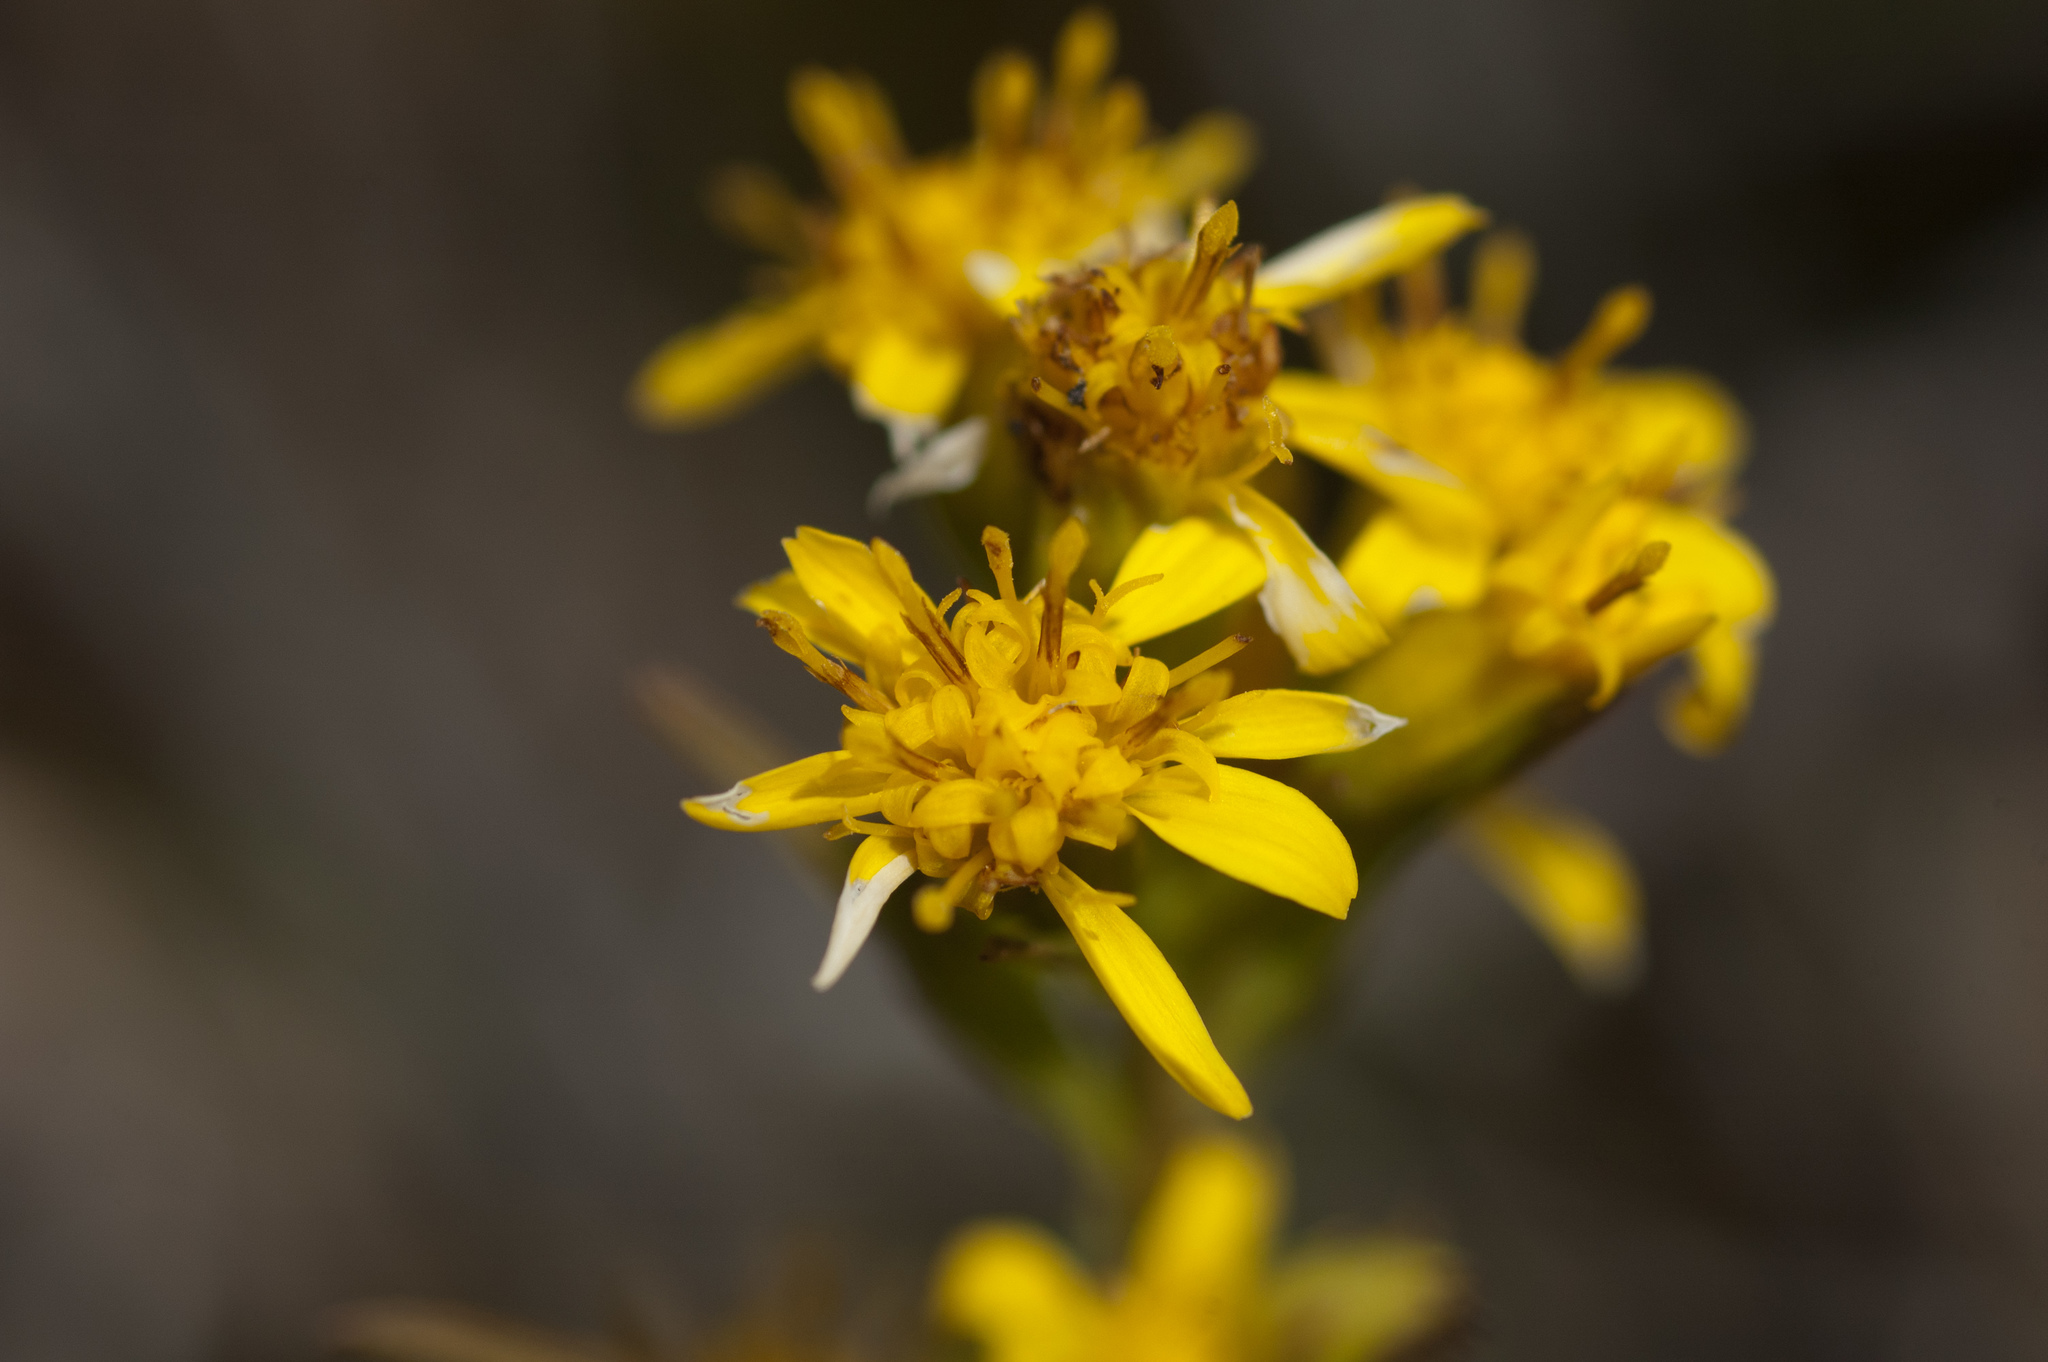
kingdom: Plantae
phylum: Tracheophyta
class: Magnoliopsida
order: Asterales
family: Asteraceae
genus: Solidago
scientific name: Solidago decurrens
